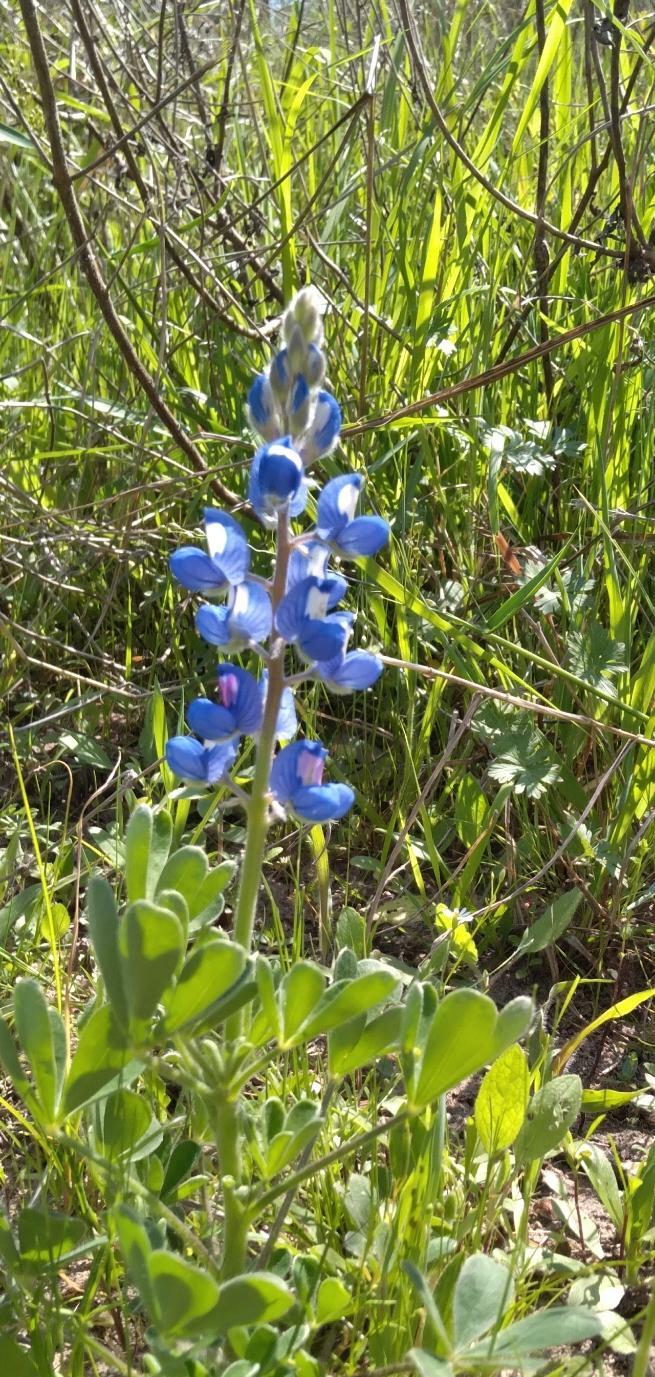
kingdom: Plantae
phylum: Tracheophyta
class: Magnoliopsida
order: Fabales
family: Fabaceae
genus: Lupinus
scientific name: Lupinus subcarnosus
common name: Texas bluebonnet
